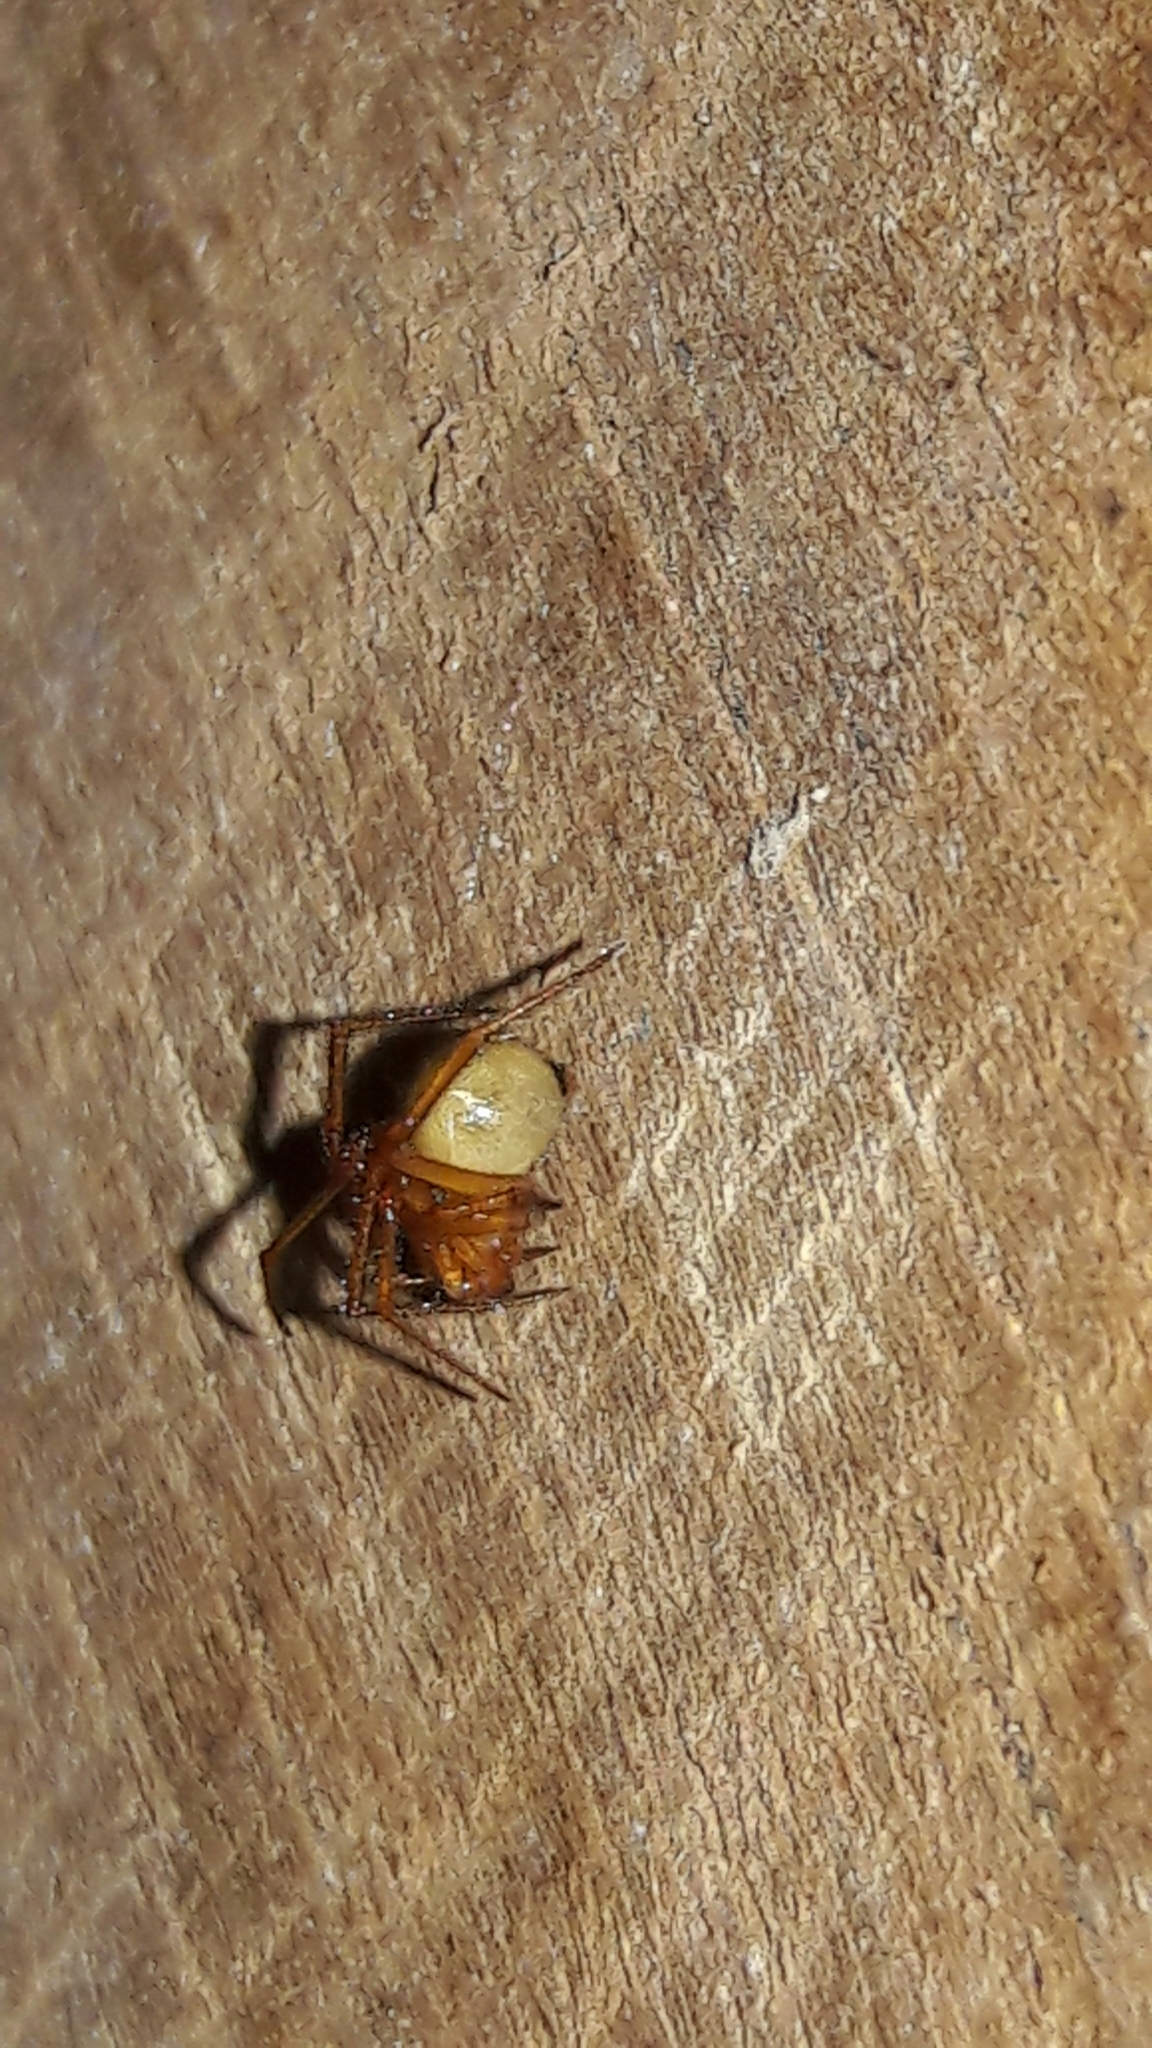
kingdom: Animalia
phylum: Arthropoda
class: Arachnida
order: Araneae
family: Theridiidae
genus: Nesticodes
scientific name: Nesticodes rufipes
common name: Cobweb spiders
